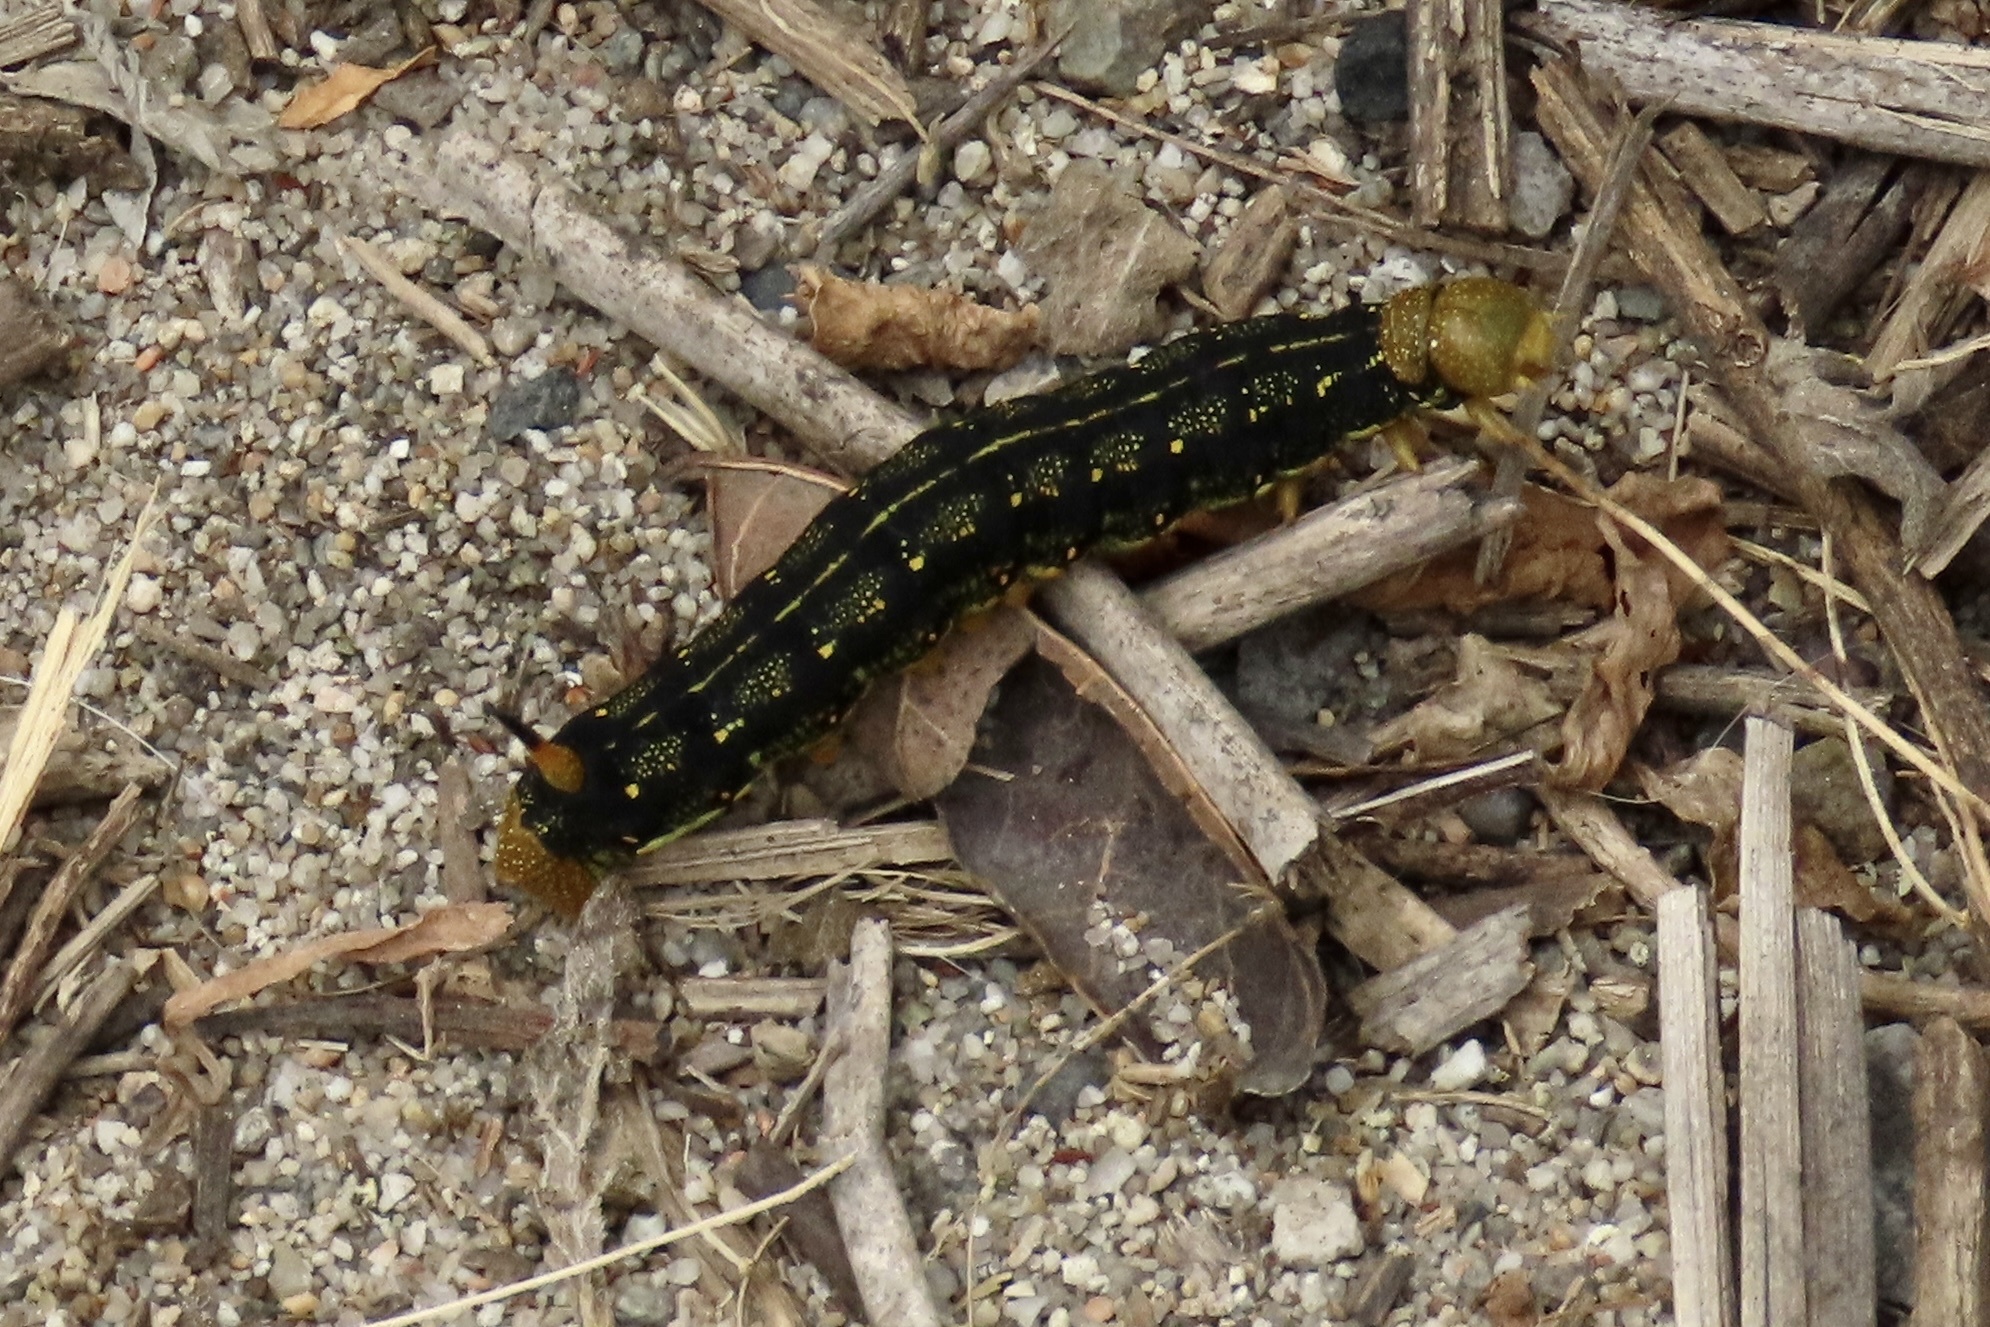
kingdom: Animalia
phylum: Arthropoda
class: Insecta
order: Lepidoptera
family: Sphingidae
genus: Hyles
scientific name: Hyles lineata
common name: White-lined sphinx
